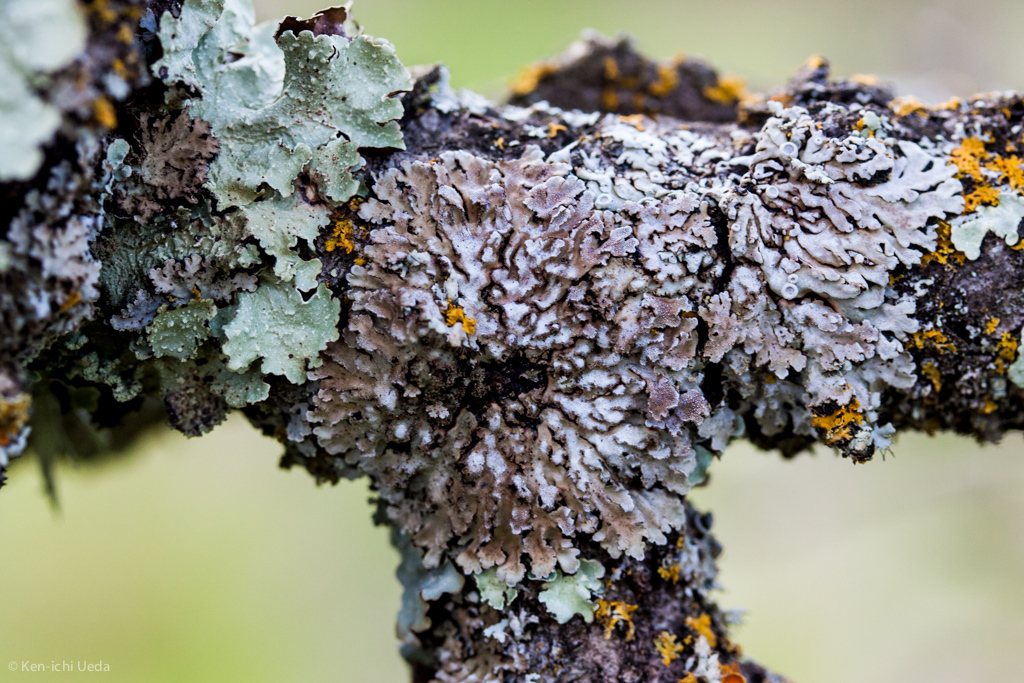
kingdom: Fungi
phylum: Ascomycota
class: Lecanoromycetes
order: Caliciales
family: Physciaceae
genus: Physconia
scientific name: Physconia americana
